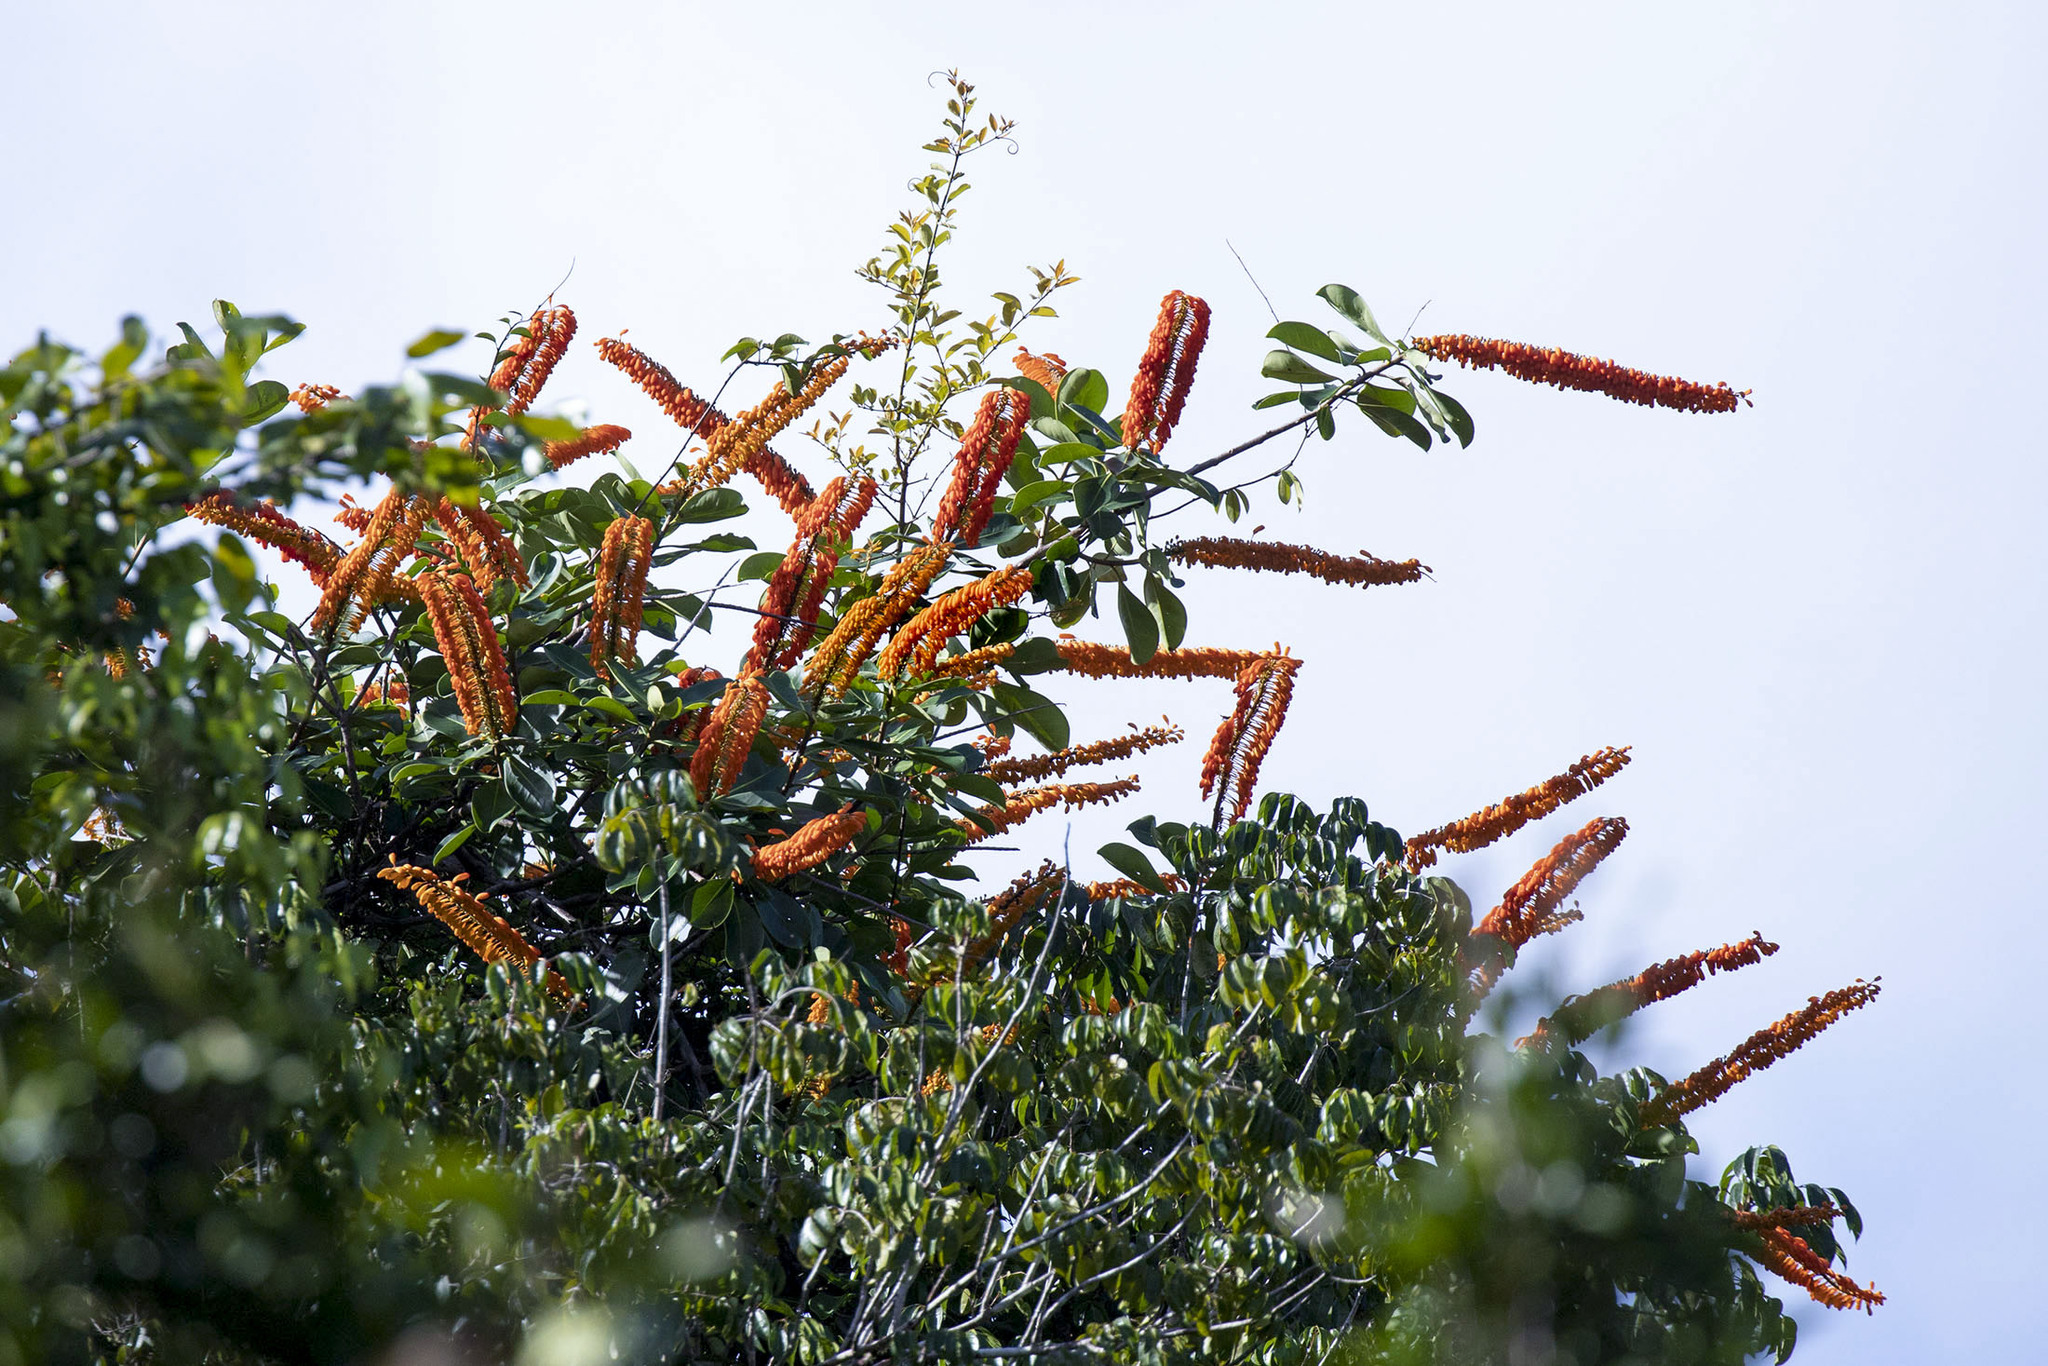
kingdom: Plantae
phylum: Tracheophyta
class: Magnoliopsida
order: Ericales
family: Marcgraviaceae
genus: Norantea
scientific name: Norantea guianensis
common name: Red hot poker vine
